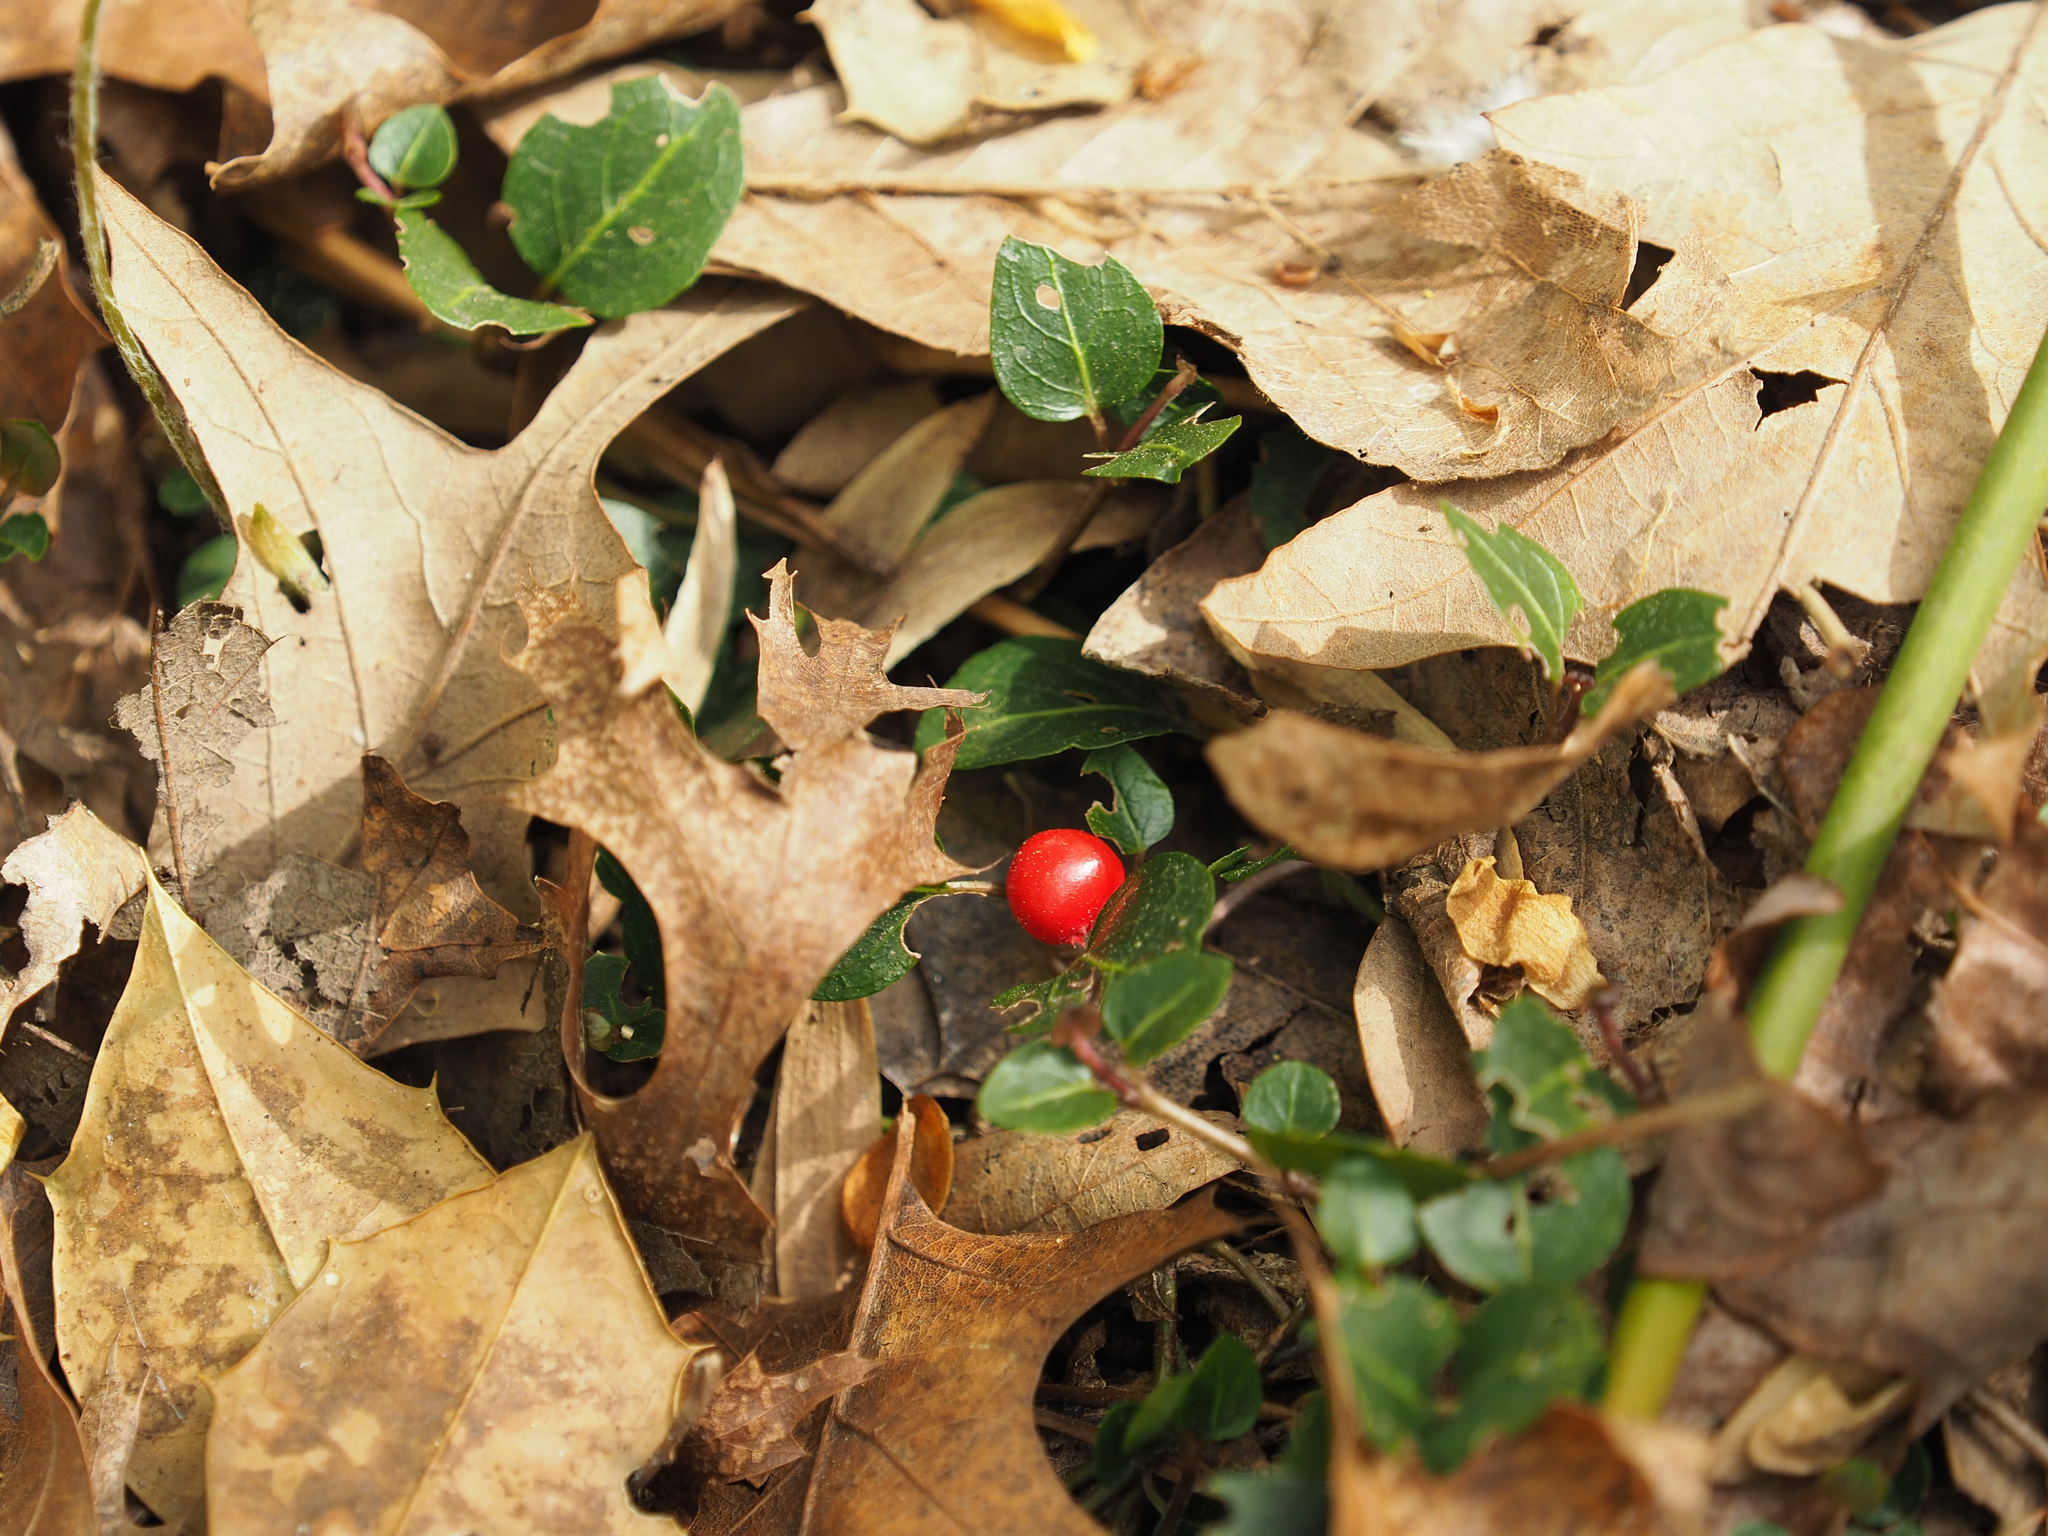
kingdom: Plantae
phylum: Tracheophyta
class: Magnoliopsida
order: Gentianales
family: Rubiaceae
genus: Mitchella
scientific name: Mitchella repens
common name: Partridge-berry
